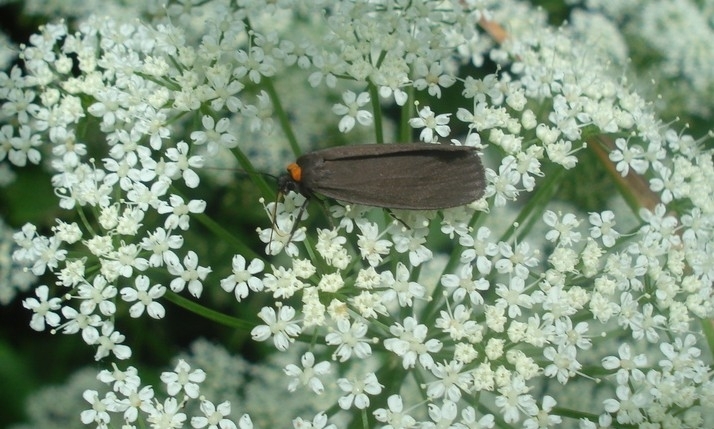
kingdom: Animalia
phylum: Arthropoda
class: Insecta
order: Lepidoptera
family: Erebidae
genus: Atolmis
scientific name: Atolmis rubricollis
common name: Red-necked footman
